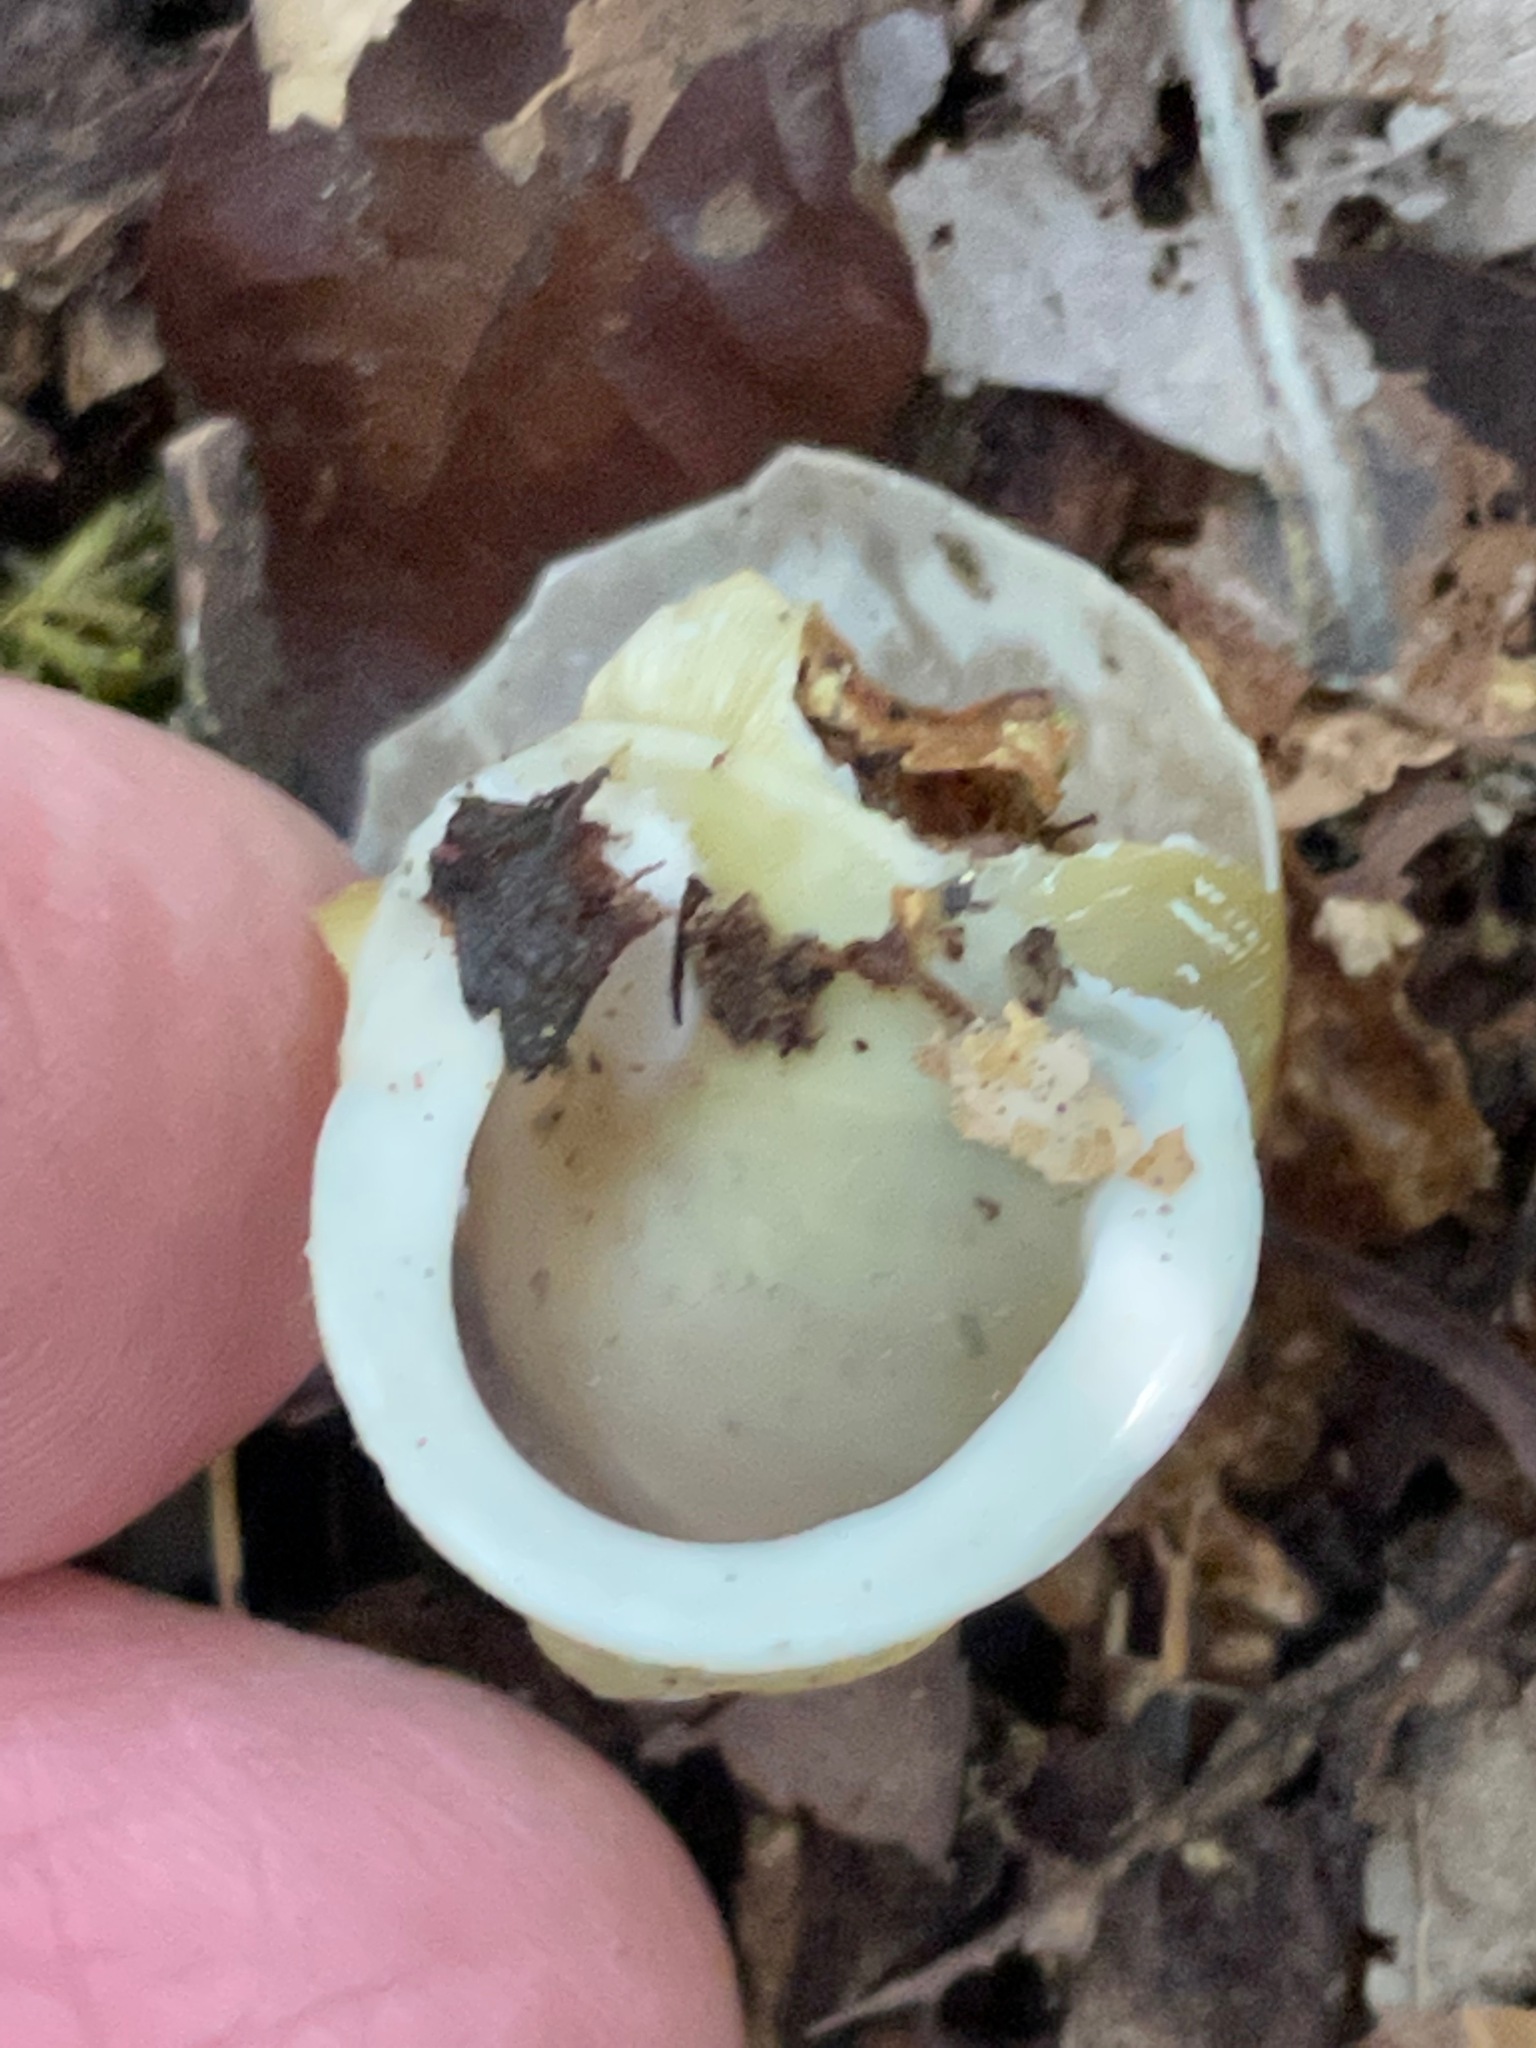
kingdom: Animalia
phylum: Mollusca
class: Gastropoda
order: Stylommatophora
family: Polygyridae
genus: Neohelix
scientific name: Neohelix albolabris
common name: Eastern whitelip
